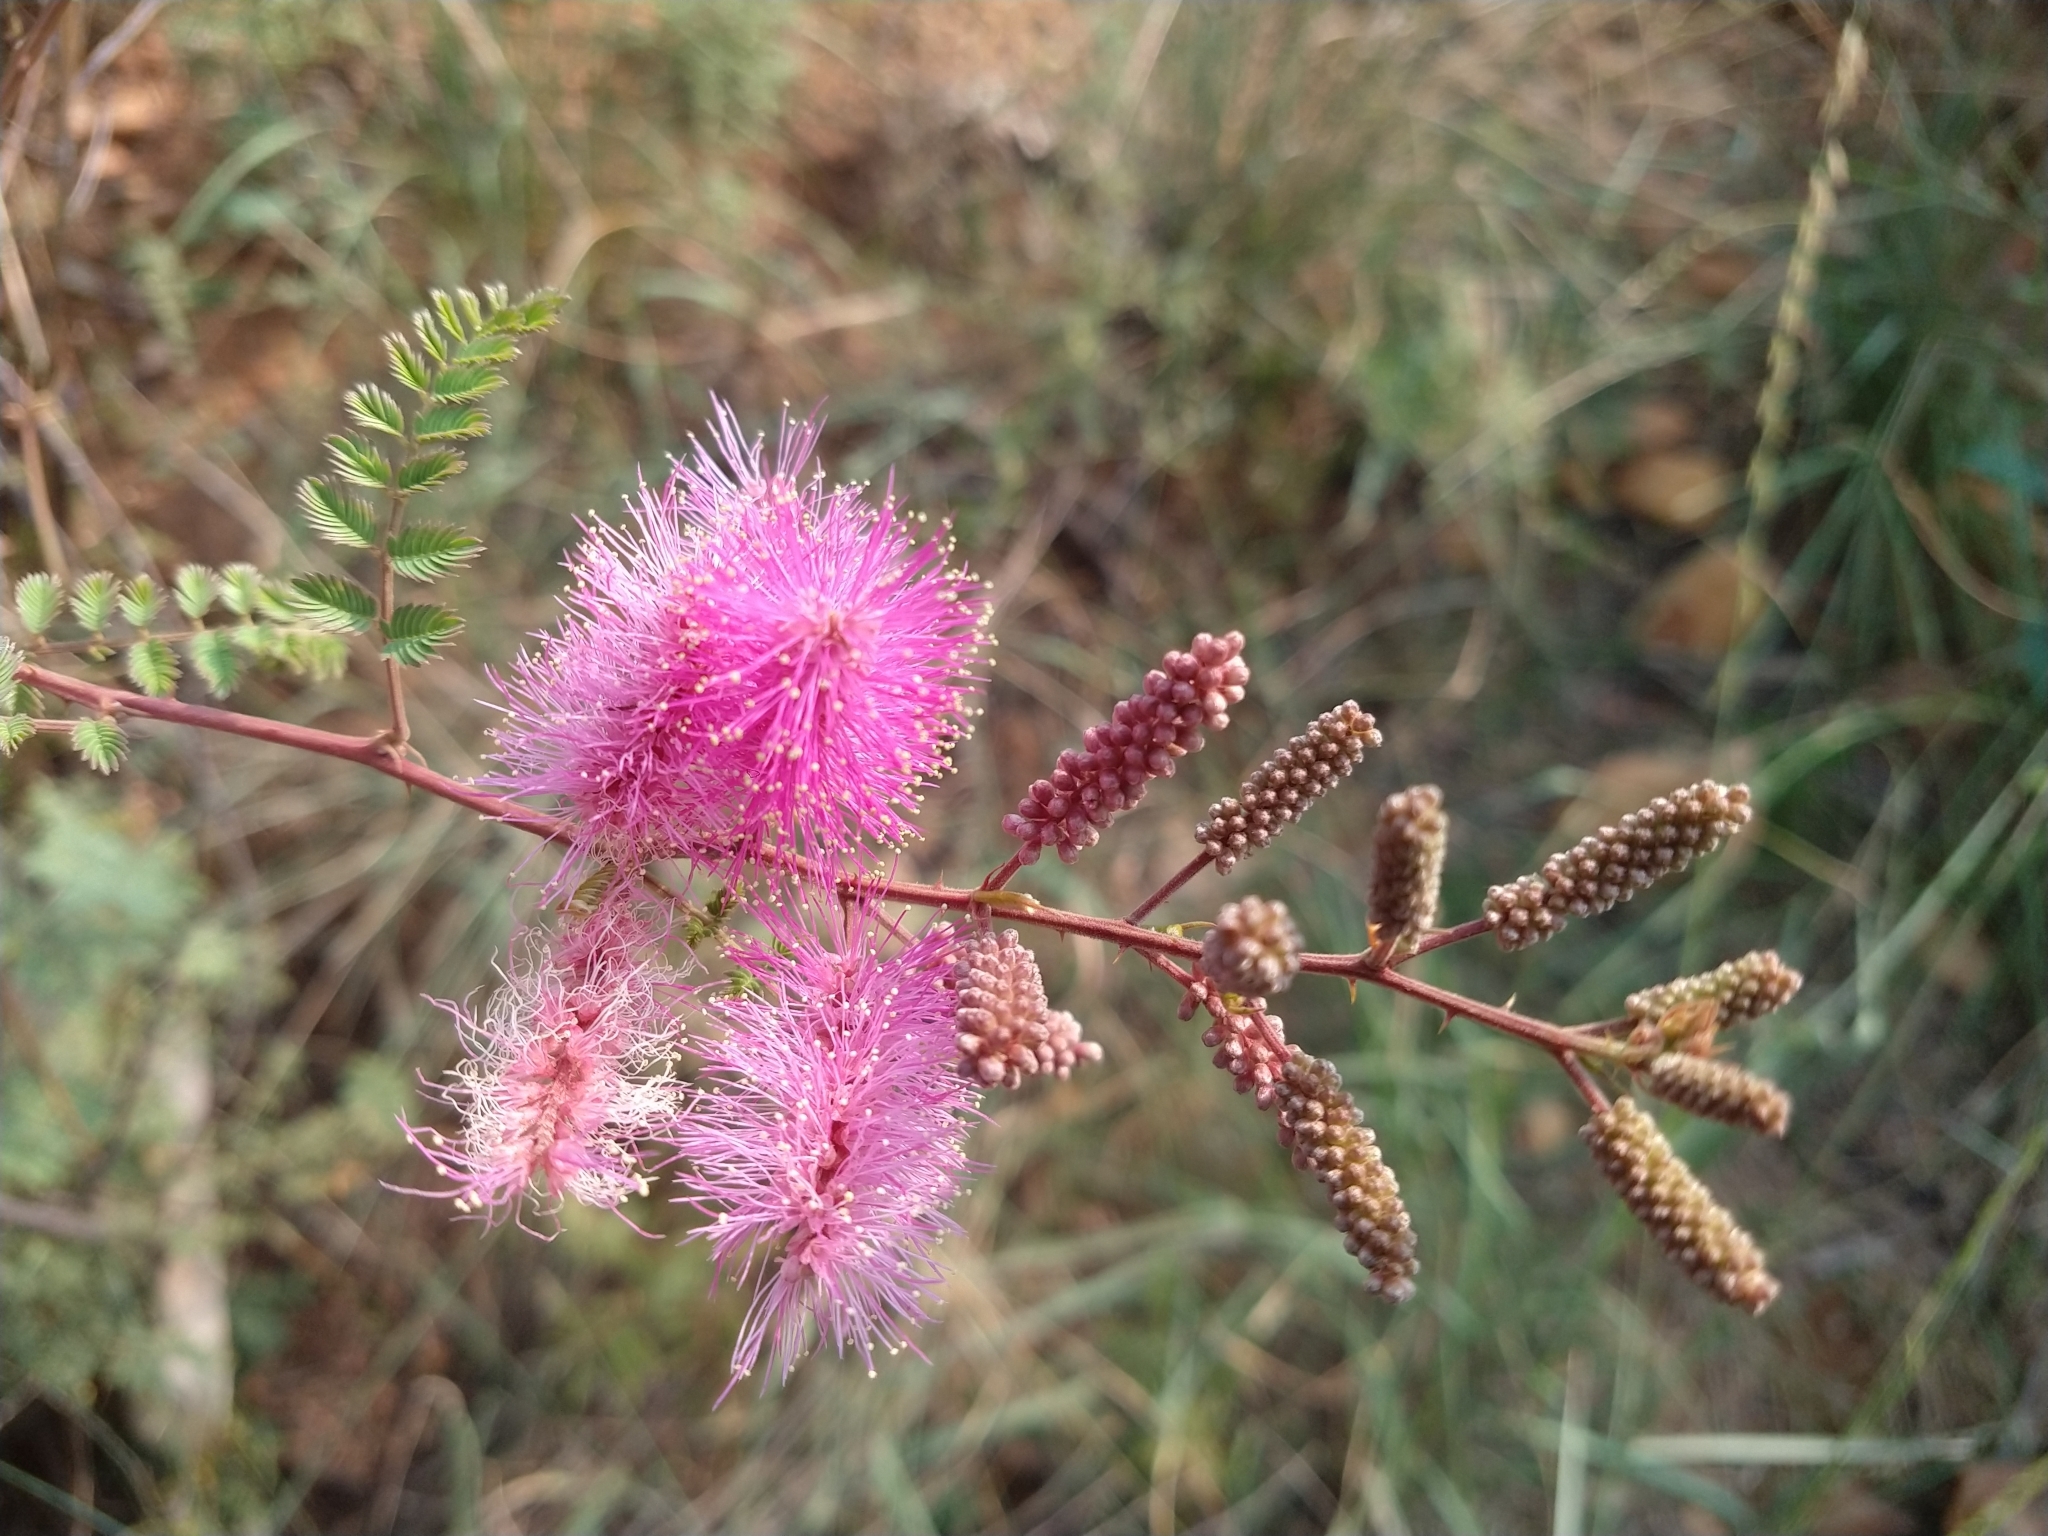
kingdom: Plantae
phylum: Tracheophyta
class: Magnoliopsida
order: Fabales
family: Fabaceae
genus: Mimosa
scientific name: Mimosa dysocarpa
